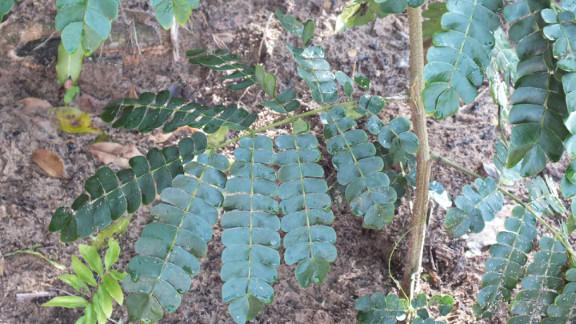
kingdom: Plantae
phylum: Tracheophyta
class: Magnoliopsida
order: Fabales
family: Fabaceae
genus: Albizia
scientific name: Albizia adianthifolia
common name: West african albizia
